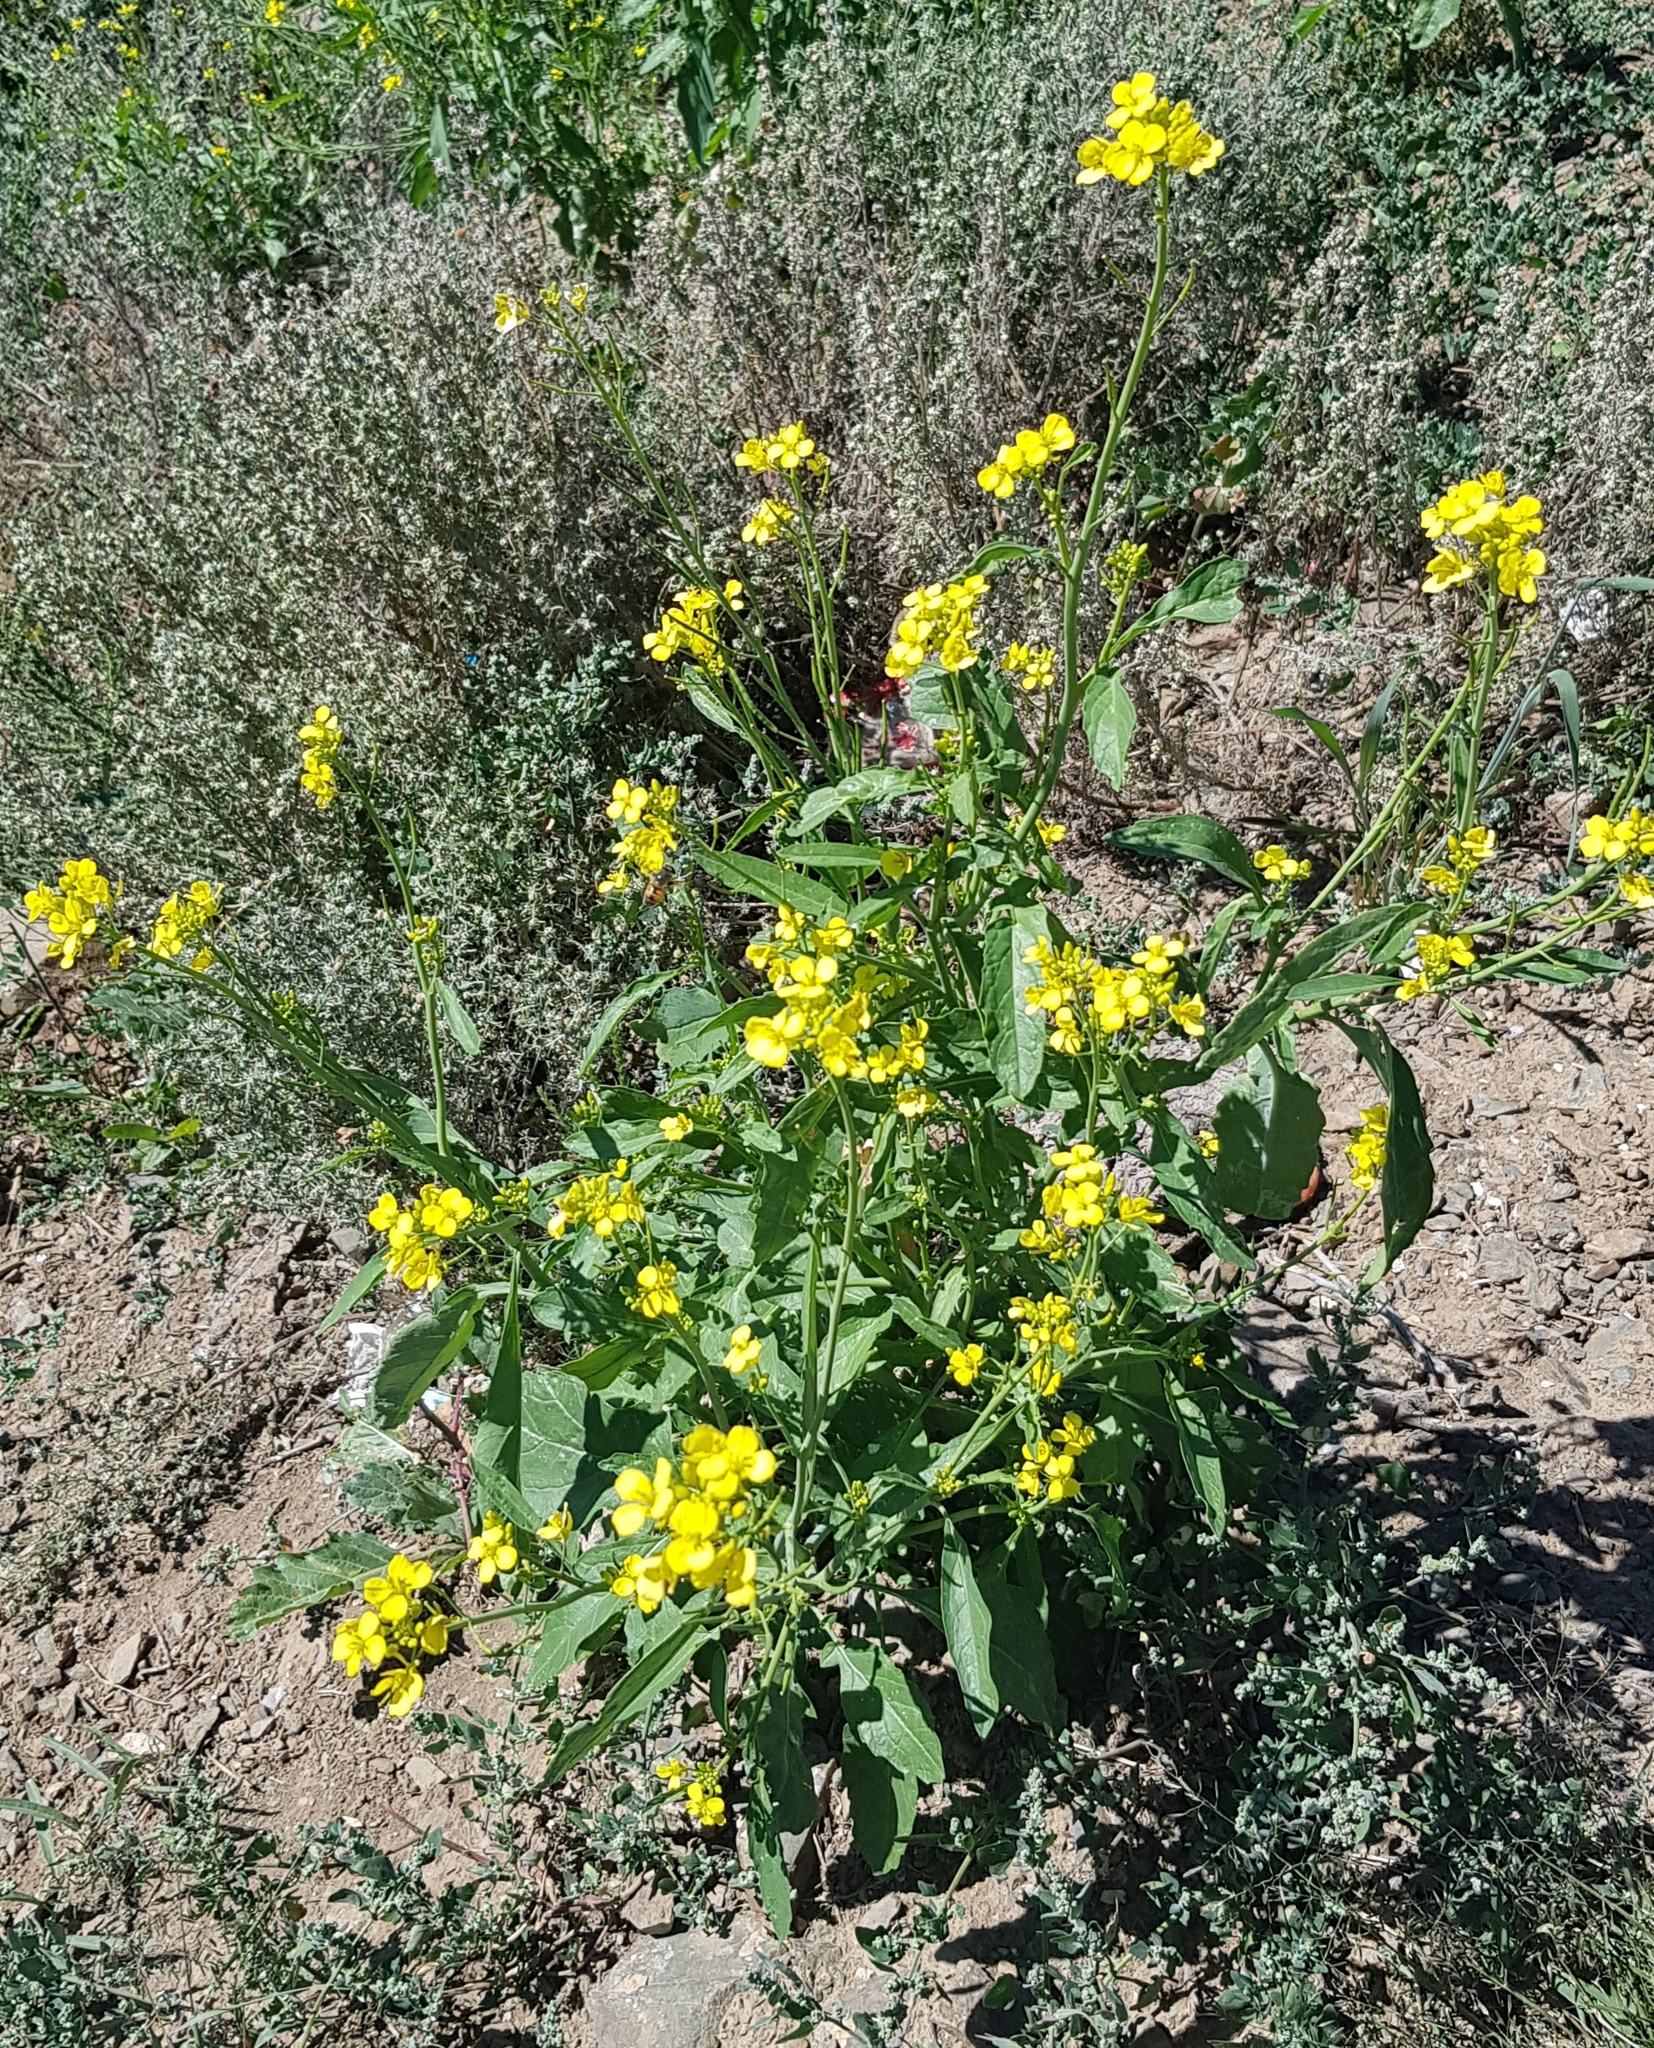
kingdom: Plantae
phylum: Tracheophyta
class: Magnoliopsida
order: Brassicales
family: Brassicaceae
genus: Brassica
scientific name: Brassica rapa
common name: Field mustard
